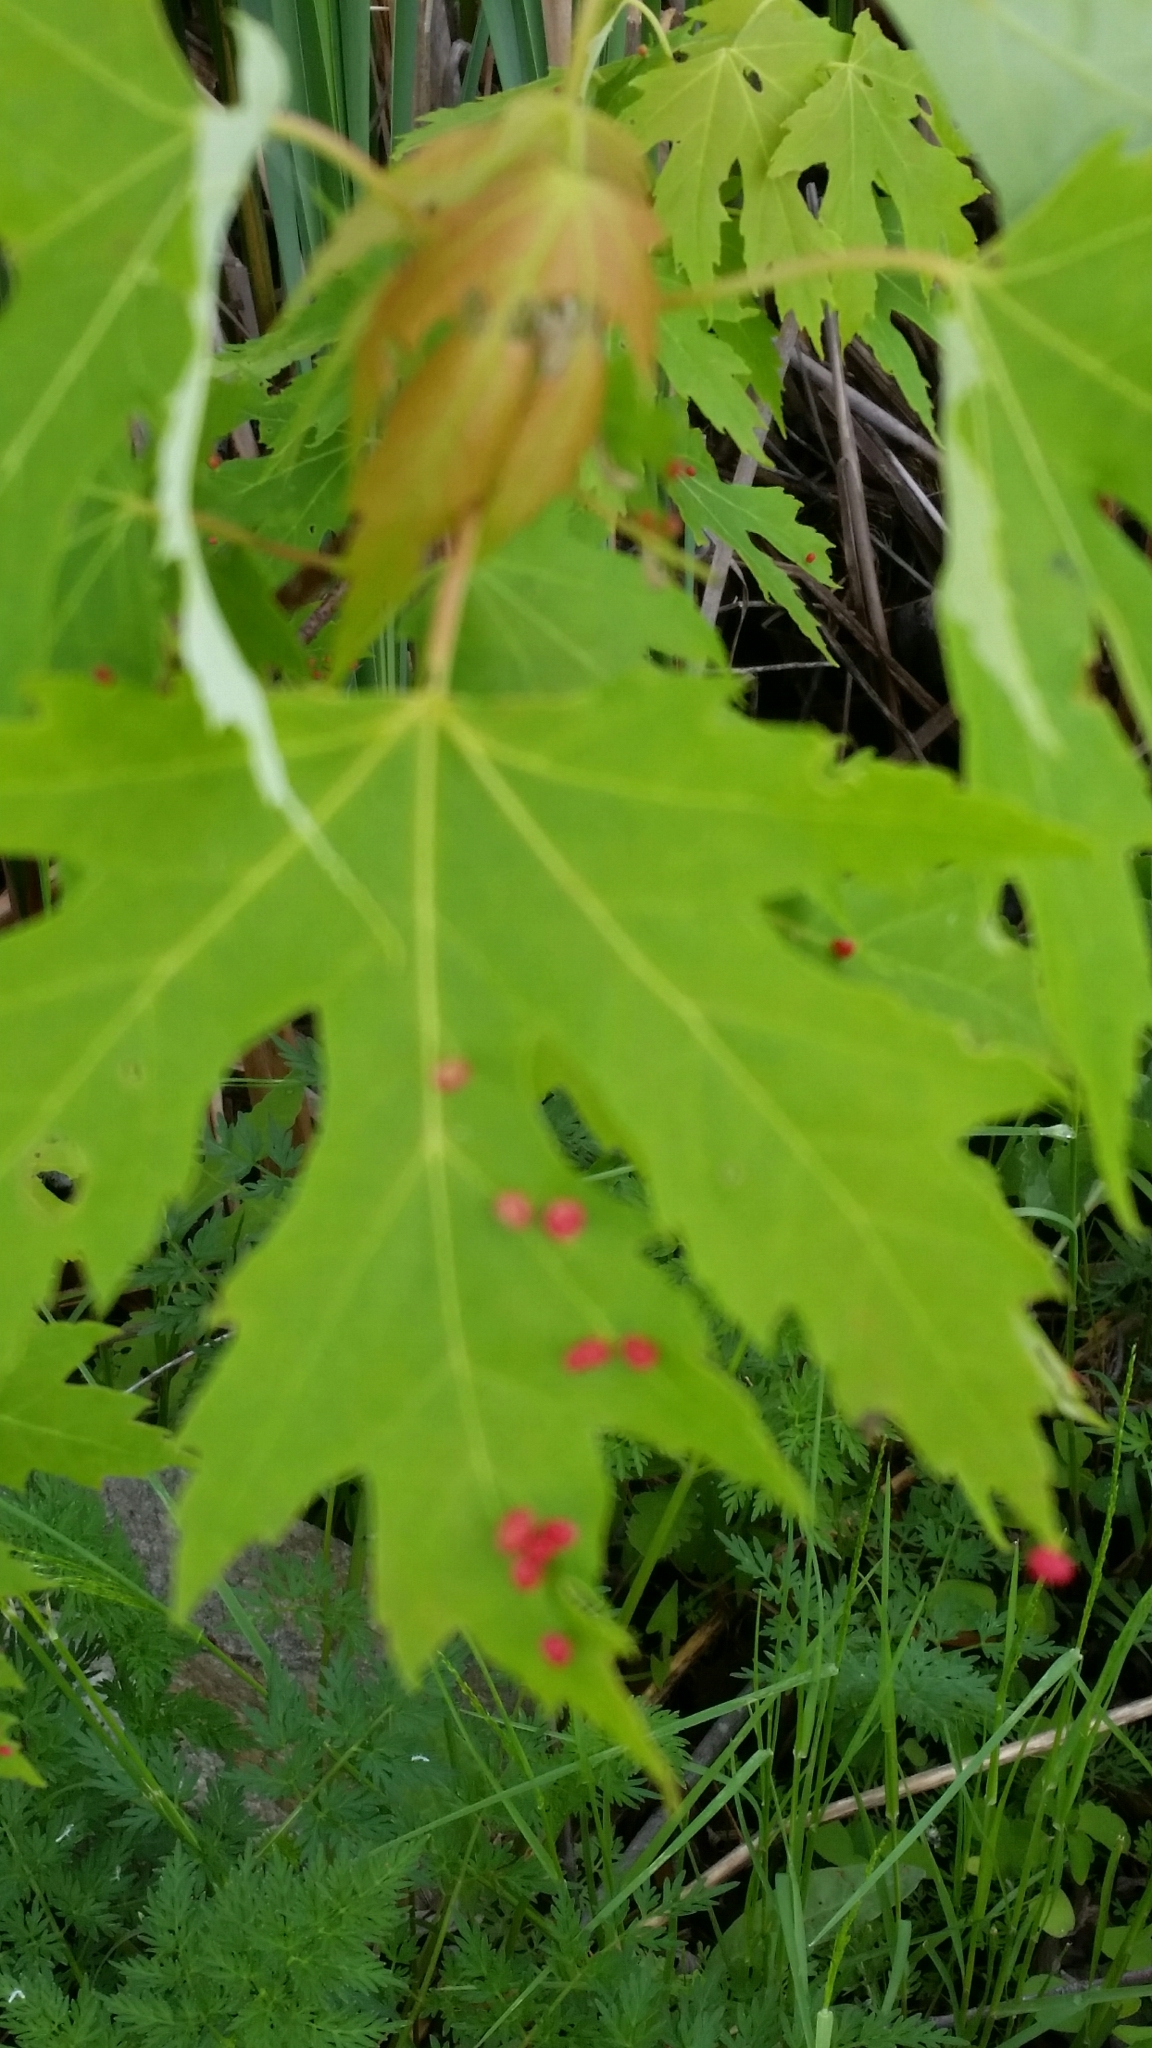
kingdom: Animalia
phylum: Arthropoda
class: Arachnida
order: Trombidiformes
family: Eriophyidae
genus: Vasates
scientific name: Vasates quadripedes
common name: Maple bladder gall mite
